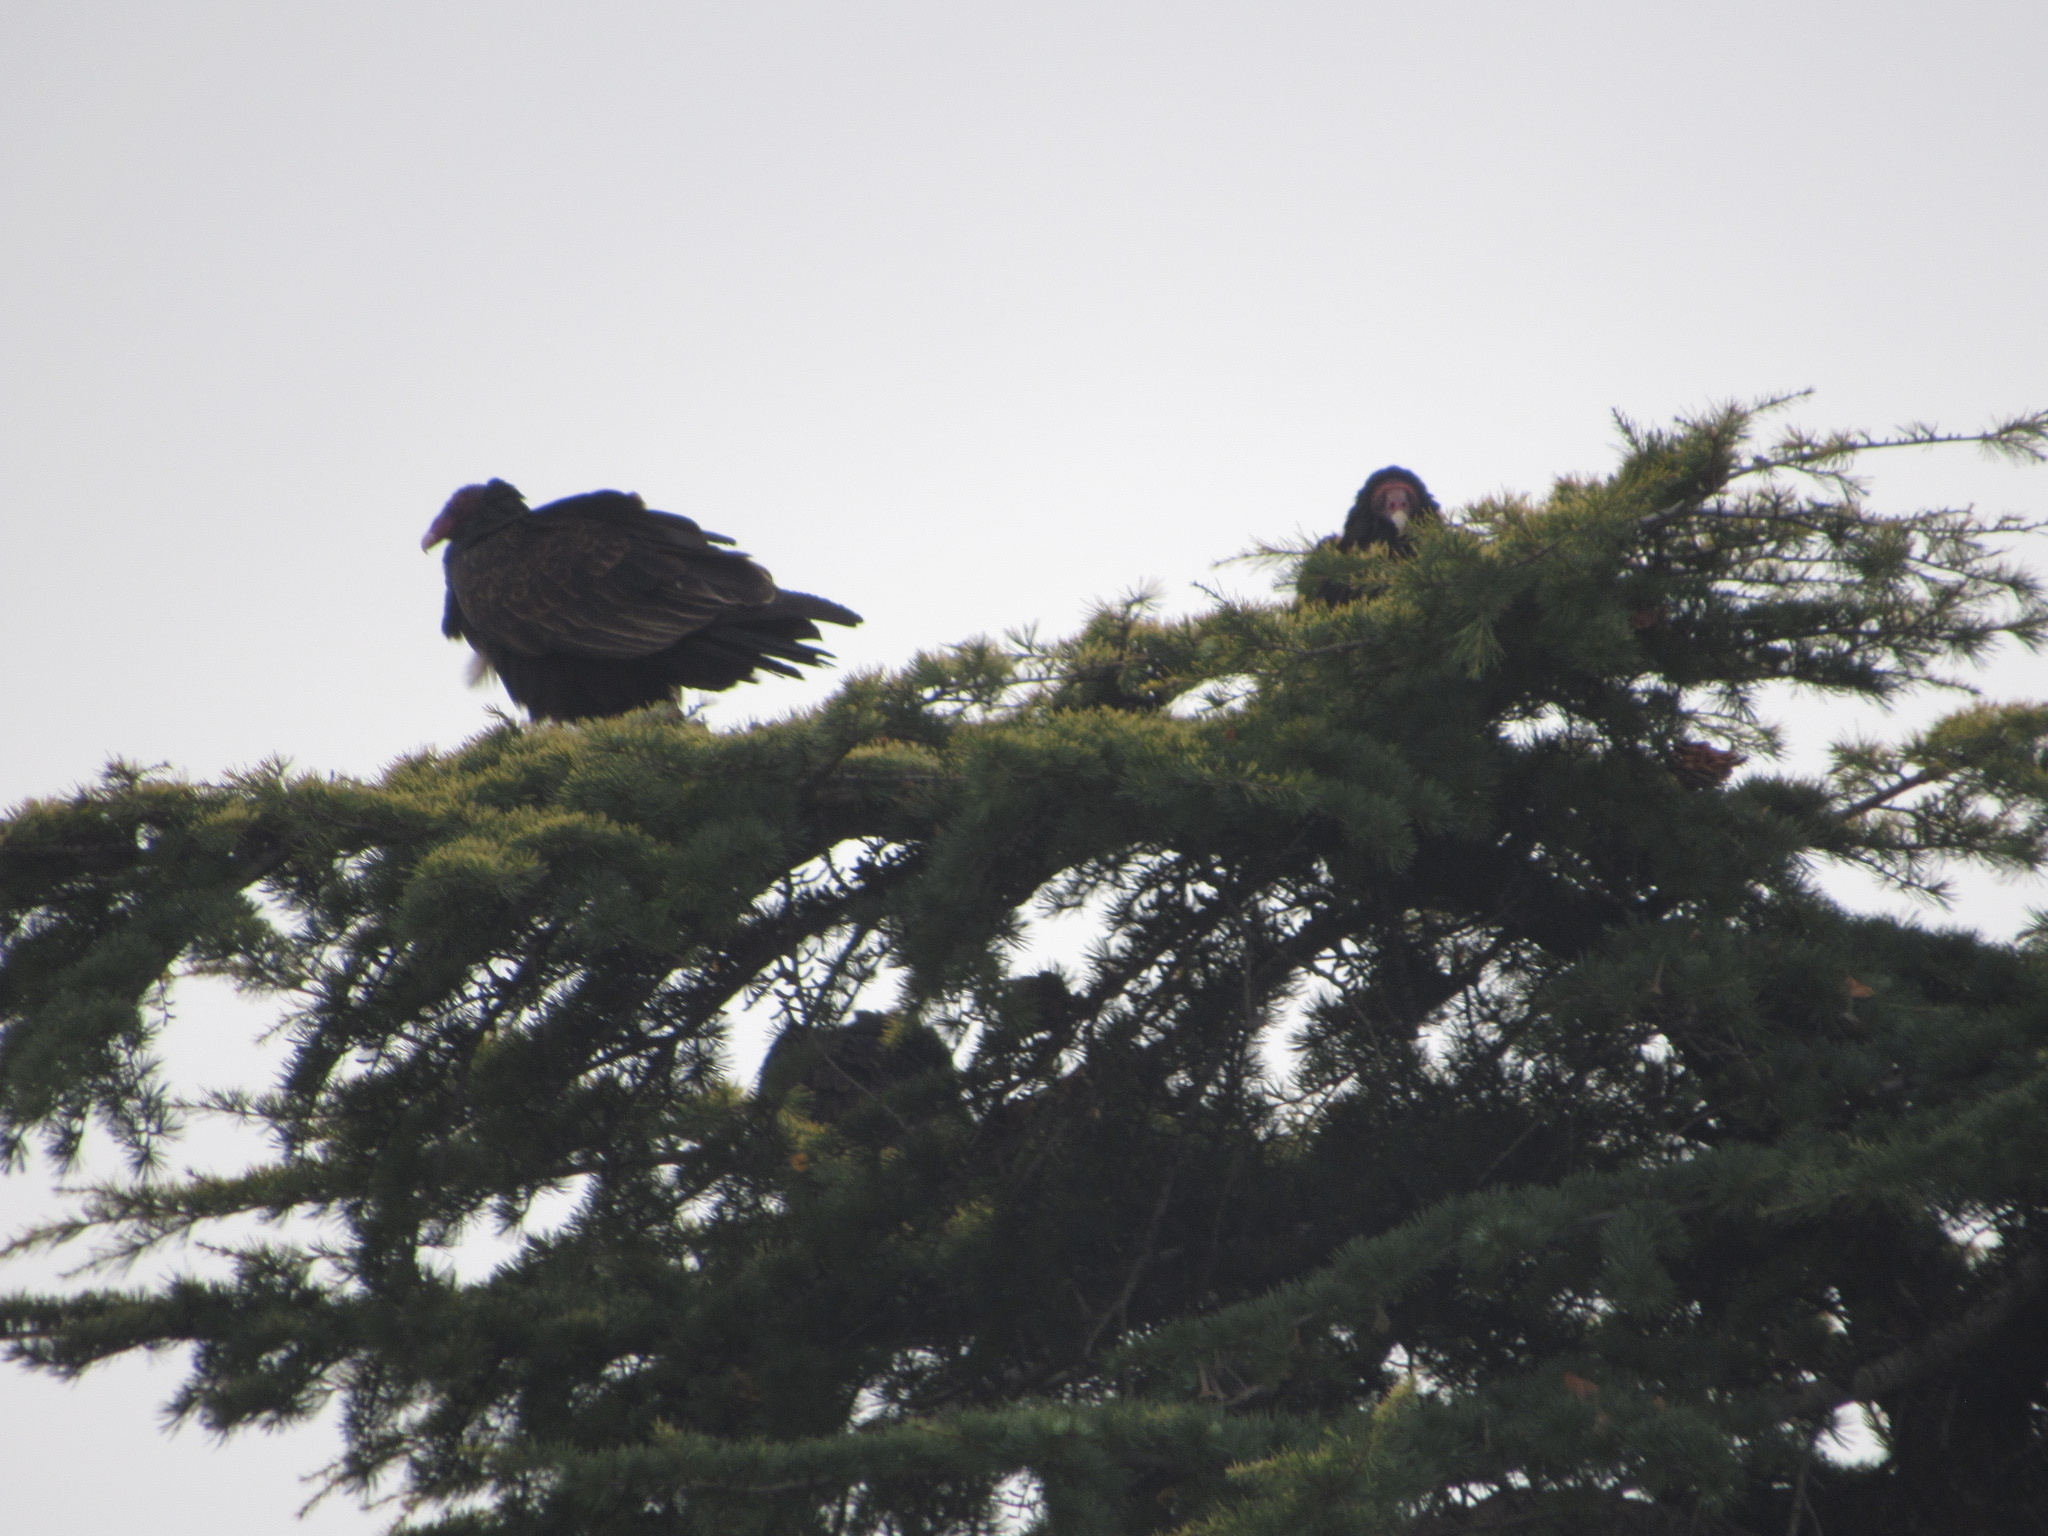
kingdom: Animalia
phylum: Chordata
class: Aves
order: Accipitriformes
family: Cathartidae
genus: Cathartes
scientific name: Cathartes aura
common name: Turkey vulture
